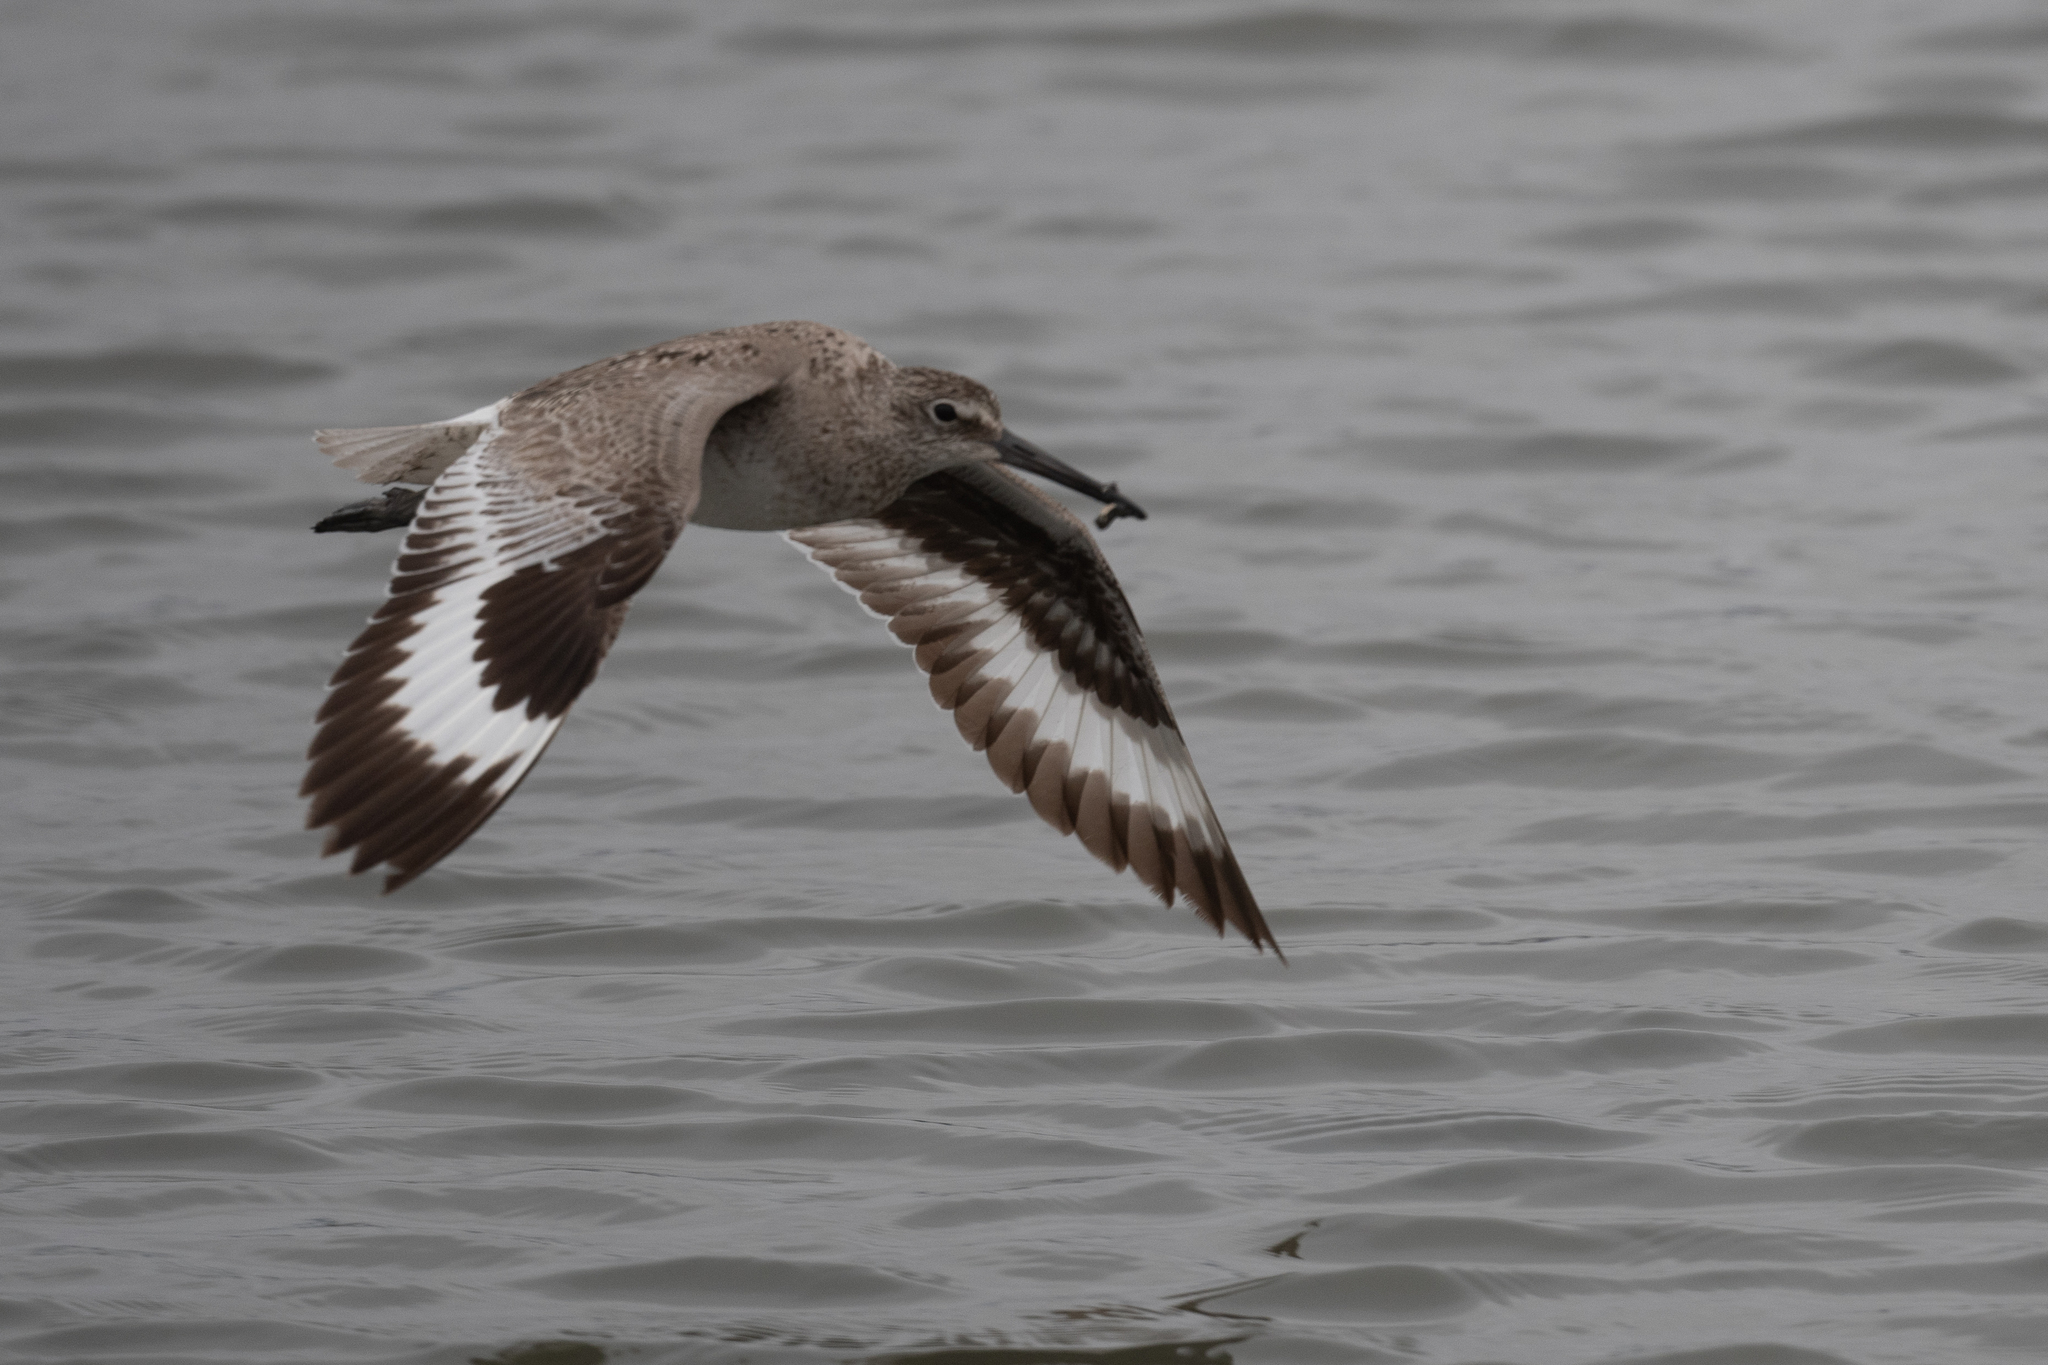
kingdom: Animalia
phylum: Chordata
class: Aves
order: Charadriiformes
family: Scolopacidae
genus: Tringa
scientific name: Tringa semipalmata
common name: Willet
